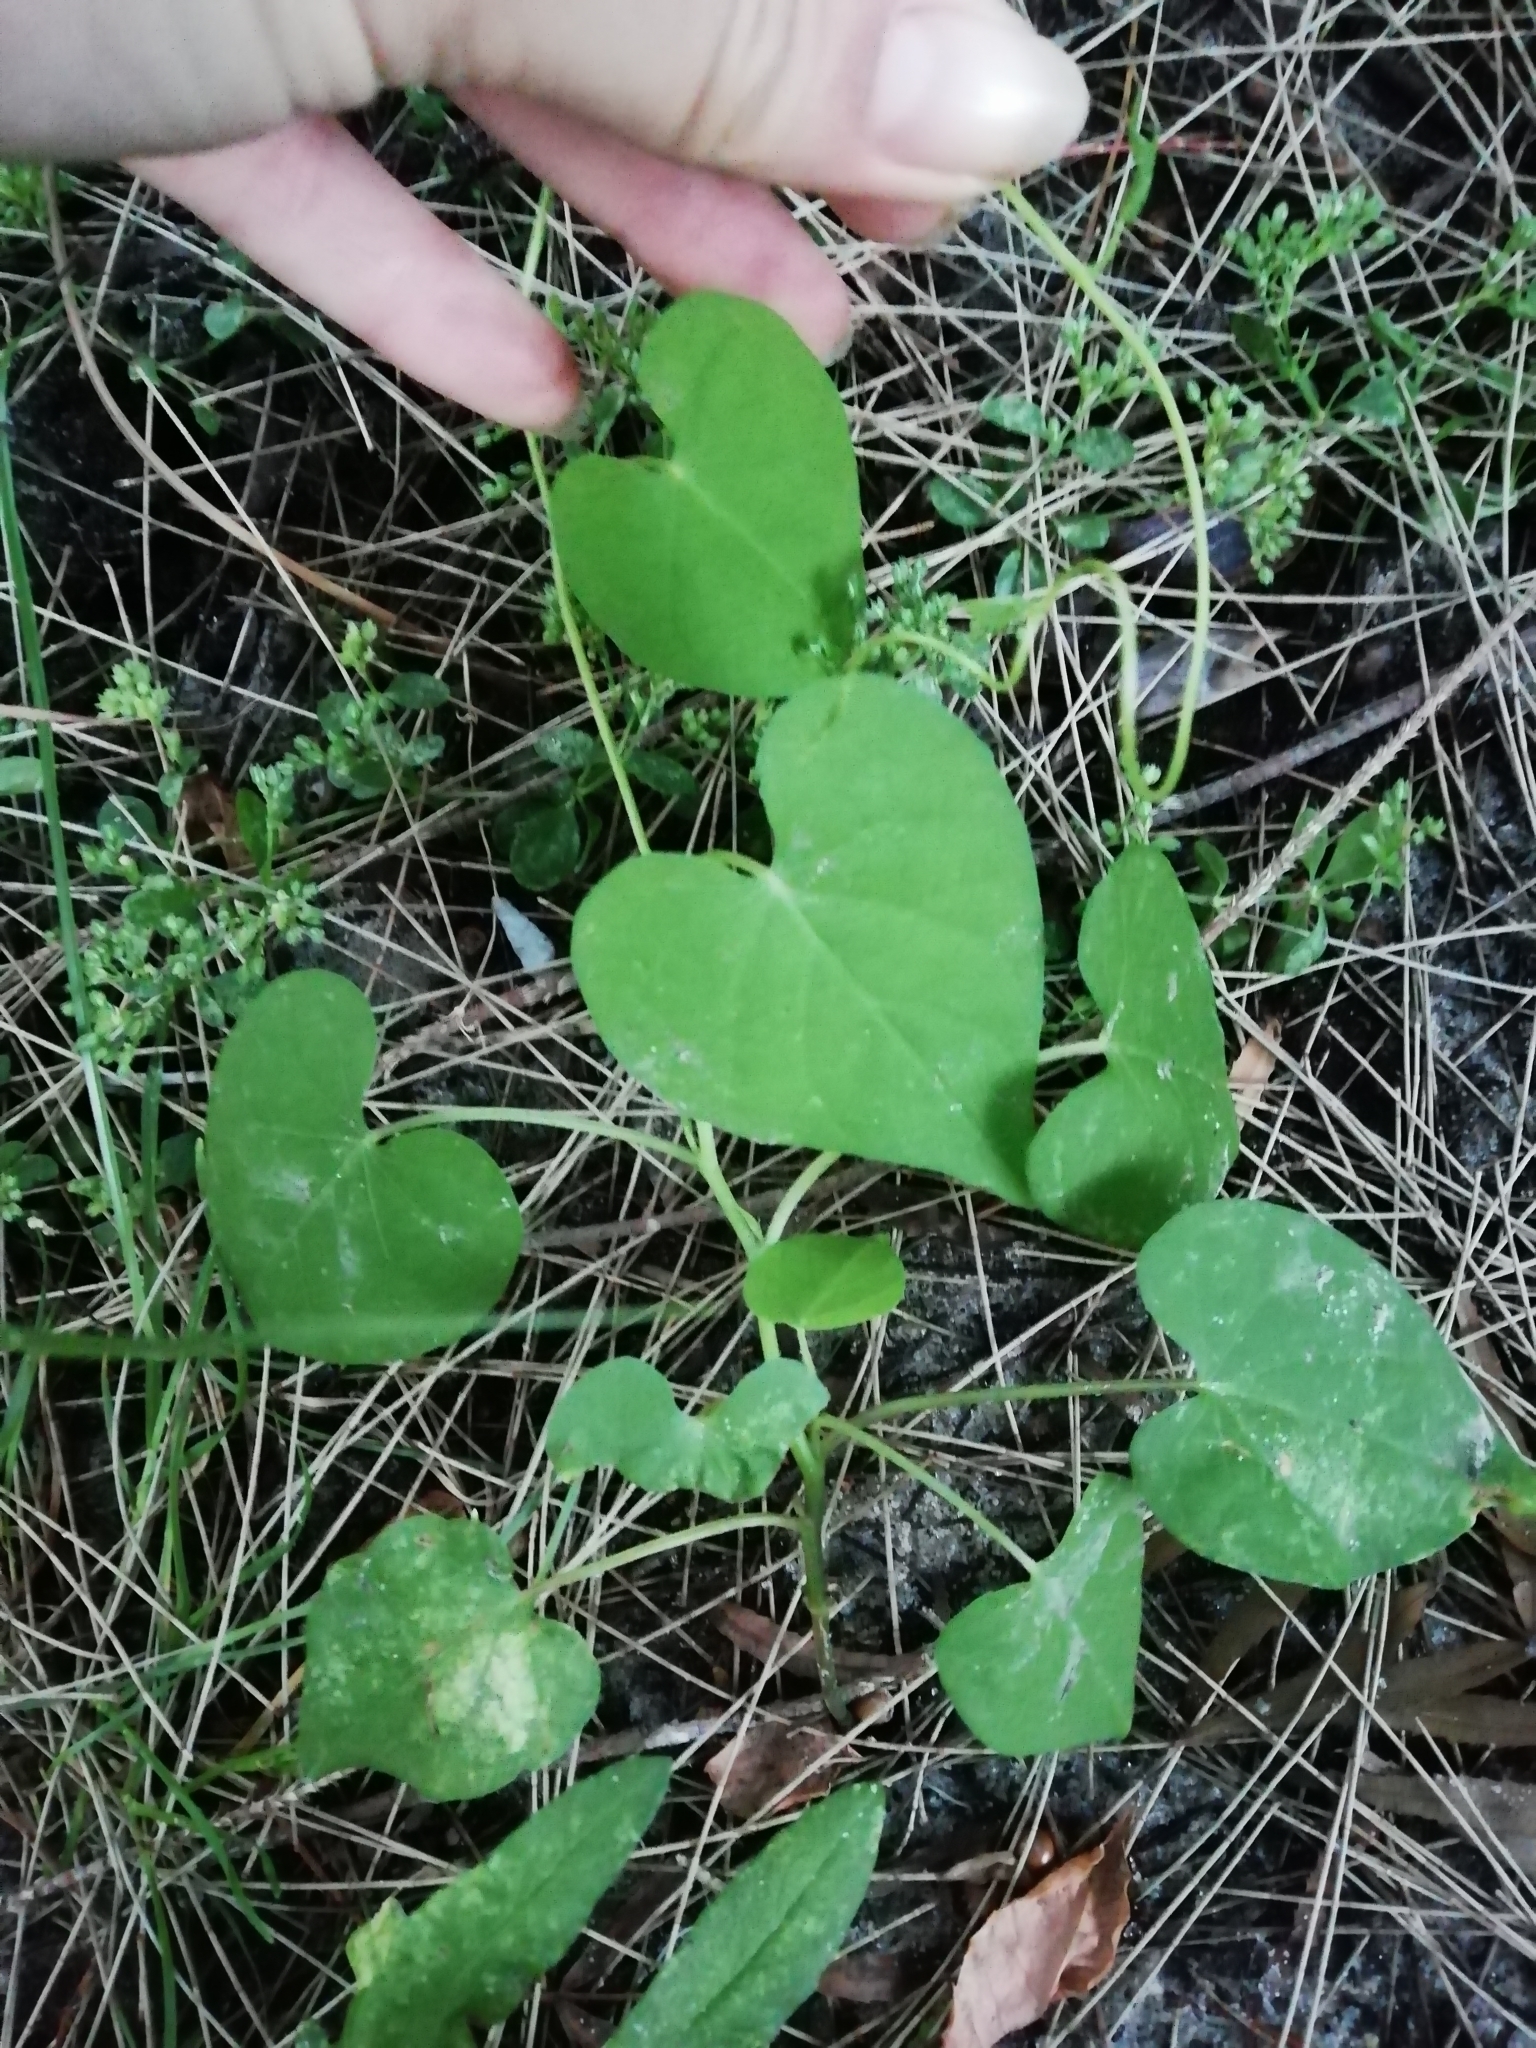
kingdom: Plantae
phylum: Tracheophyta
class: Magnoliopsida
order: Solanales
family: Convolvulaceae
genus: Ipomoea
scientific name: Ipomoea grandifolia
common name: Aiea morning glory
